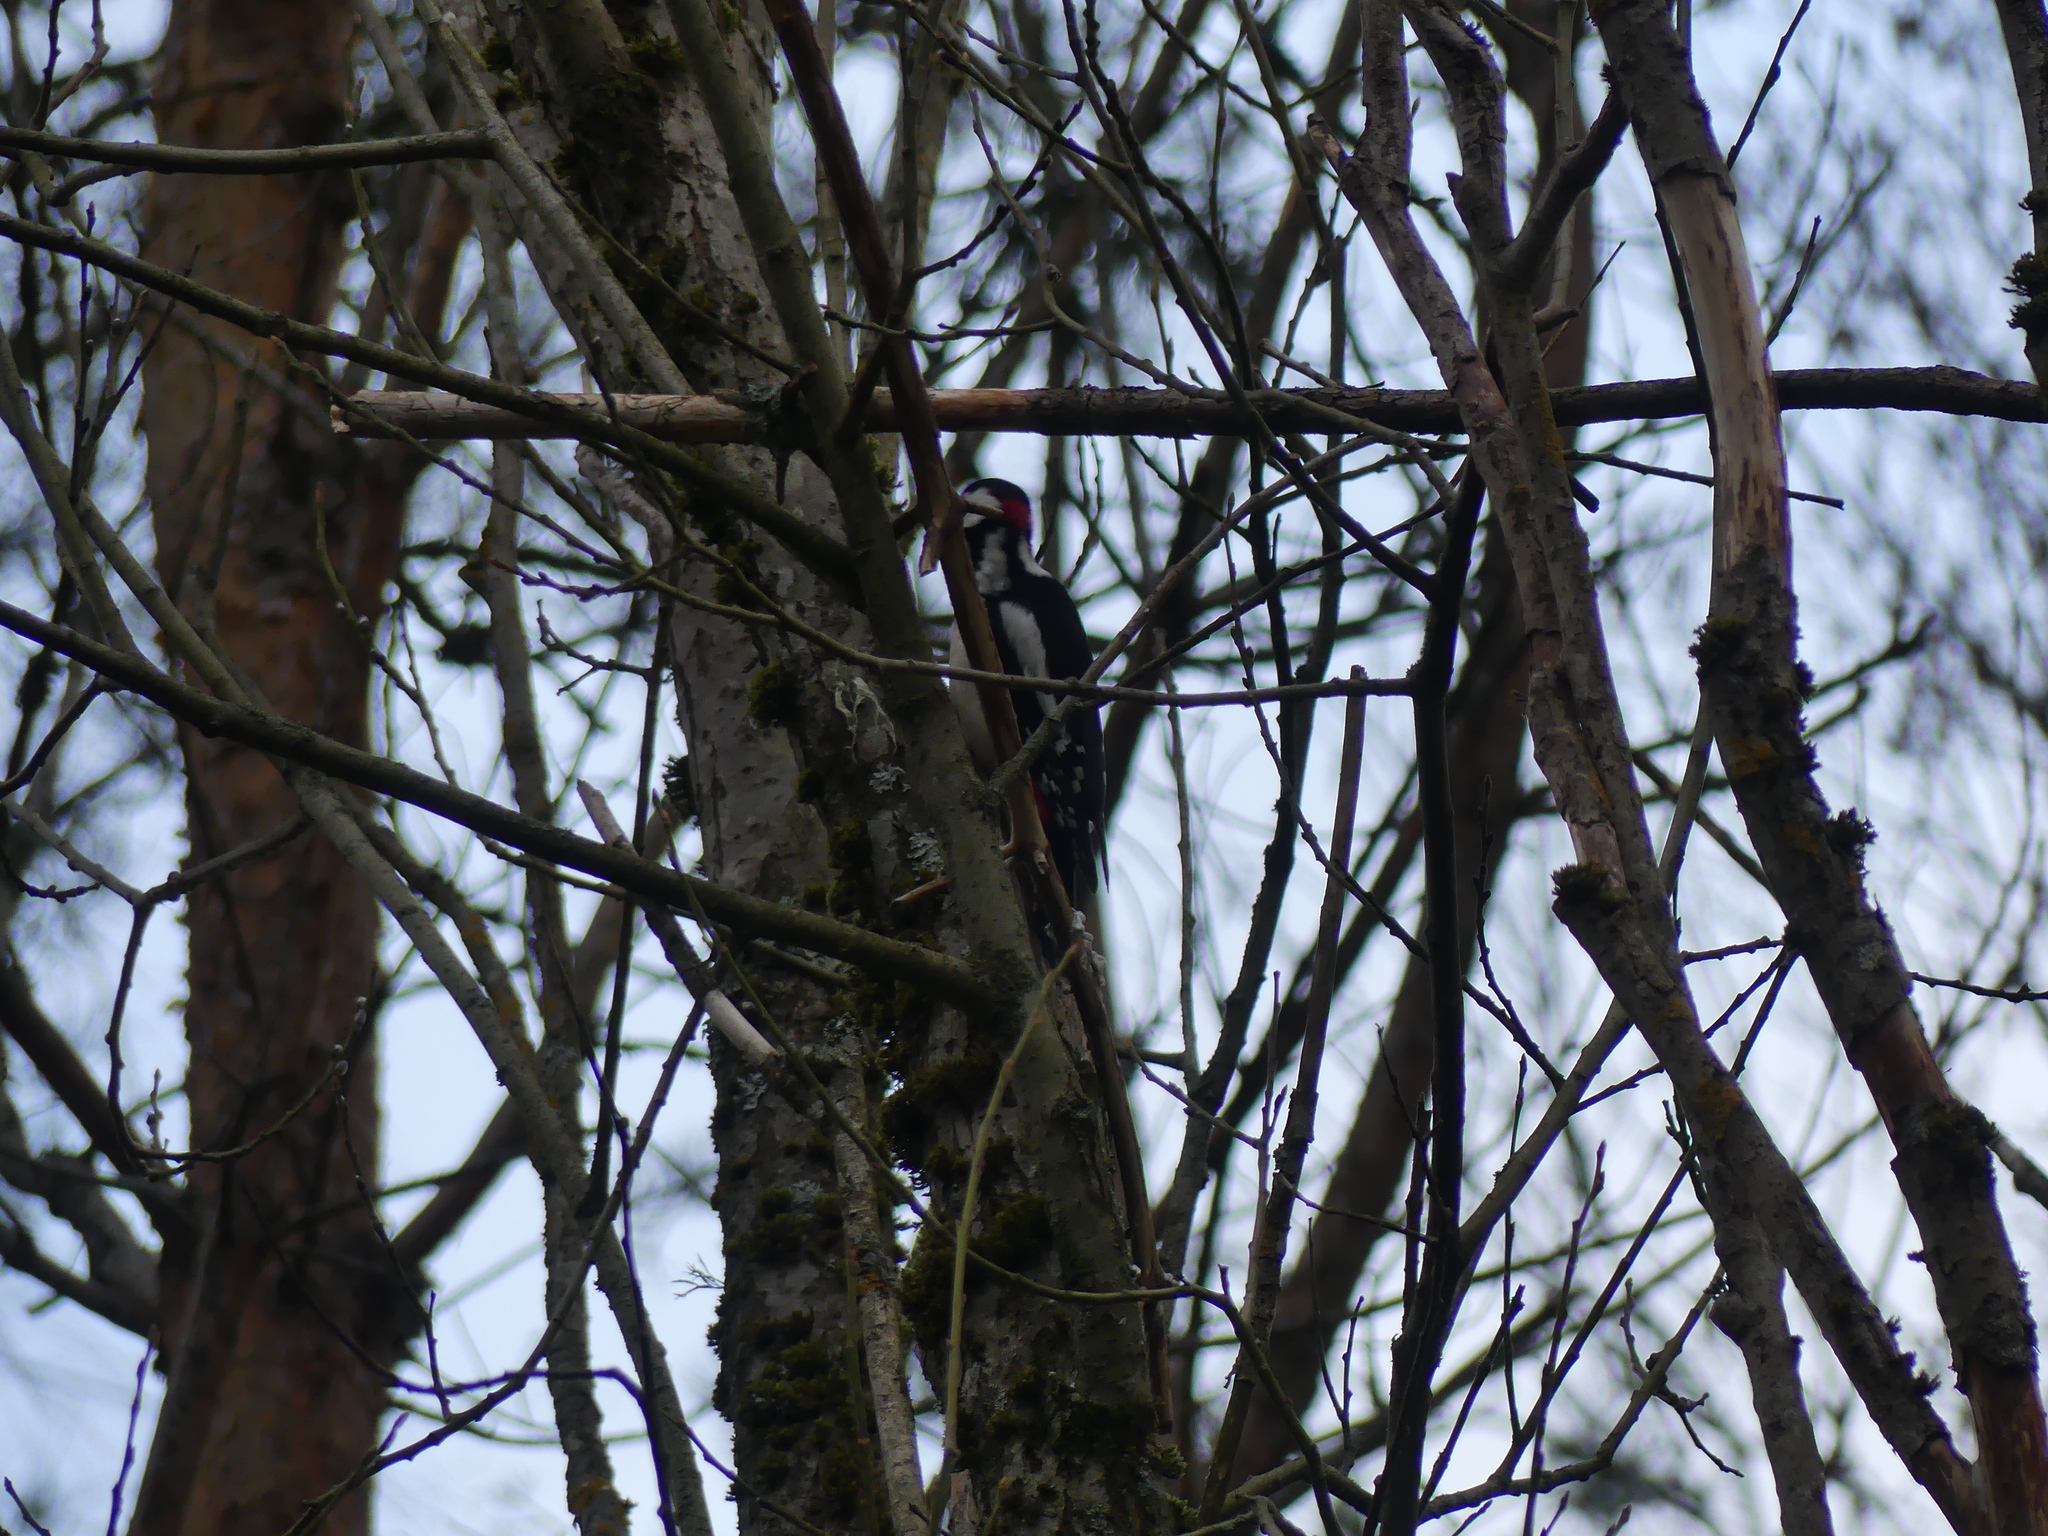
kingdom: Animalia
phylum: Chordata
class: Aves
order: Piciformes
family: Picidae
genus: Dendrocopos
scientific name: Dendrocopos major
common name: Great spotted woodpecker
